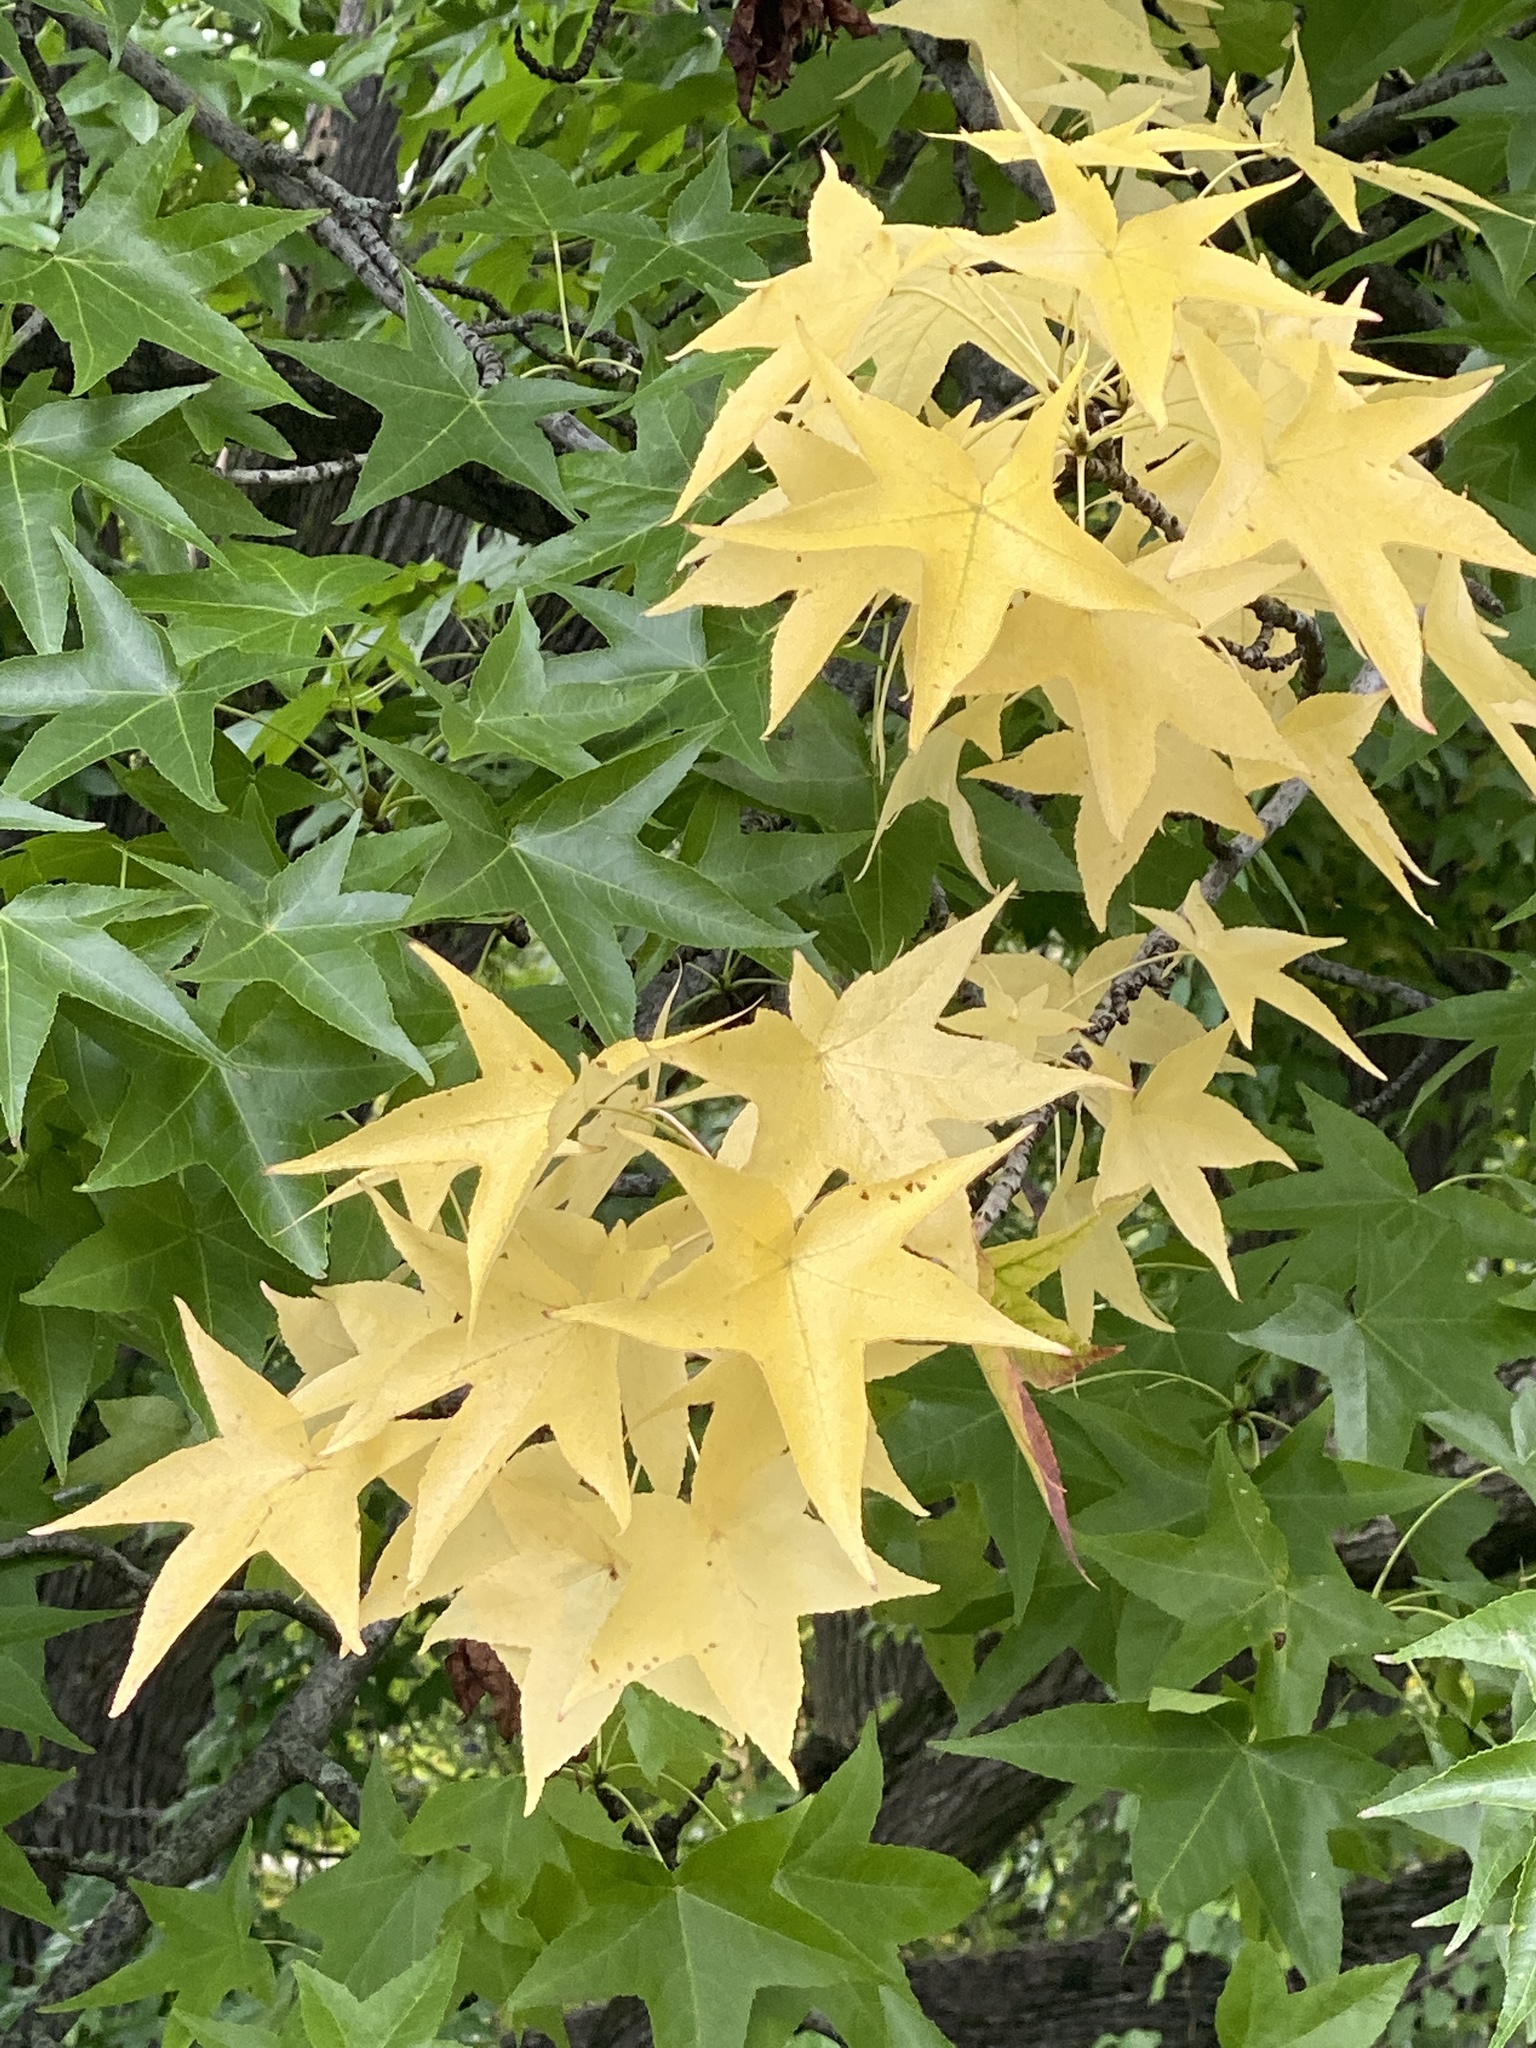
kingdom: Plantae
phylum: Tracheophyta
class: Magnoliopsida
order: Saxifragales
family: Altingiaceae
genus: Liquidambar
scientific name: Liquidambar styraciflua
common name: Sweet gum
